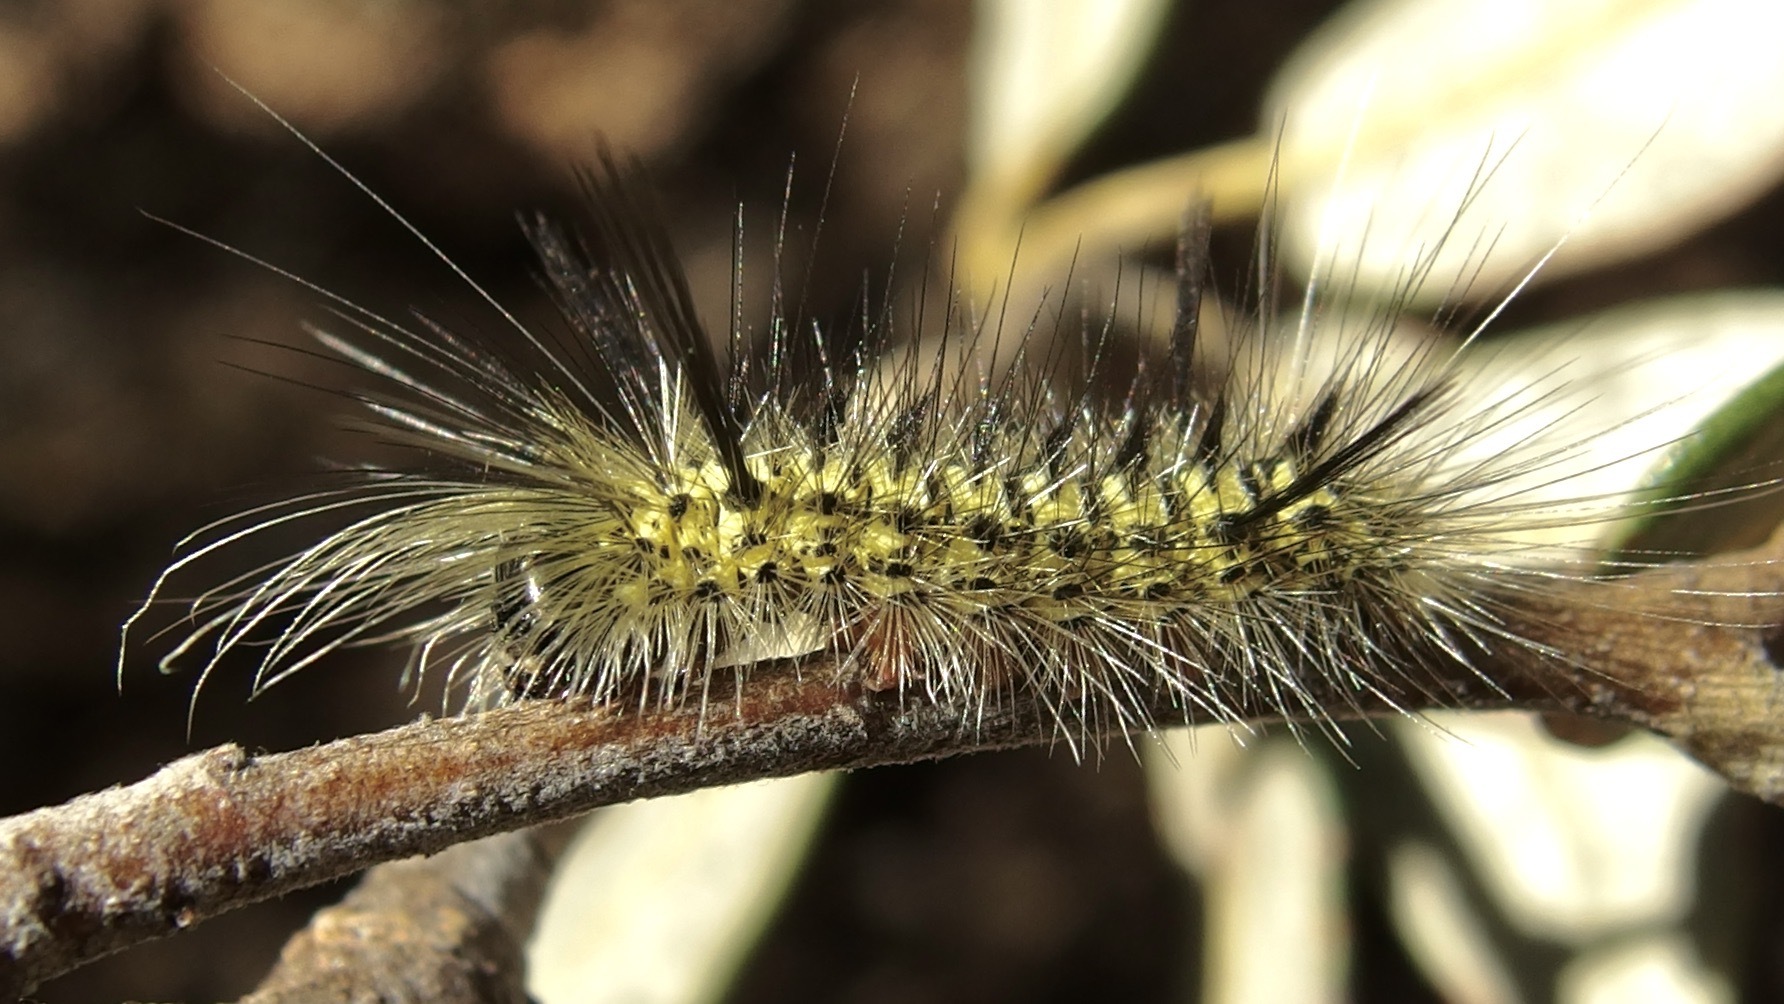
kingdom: Animalia
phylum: Arthropoda
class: Insecta
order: Lepidoptera
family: Erebidae
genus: Lophocampa
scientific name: Lophocampa mixta
